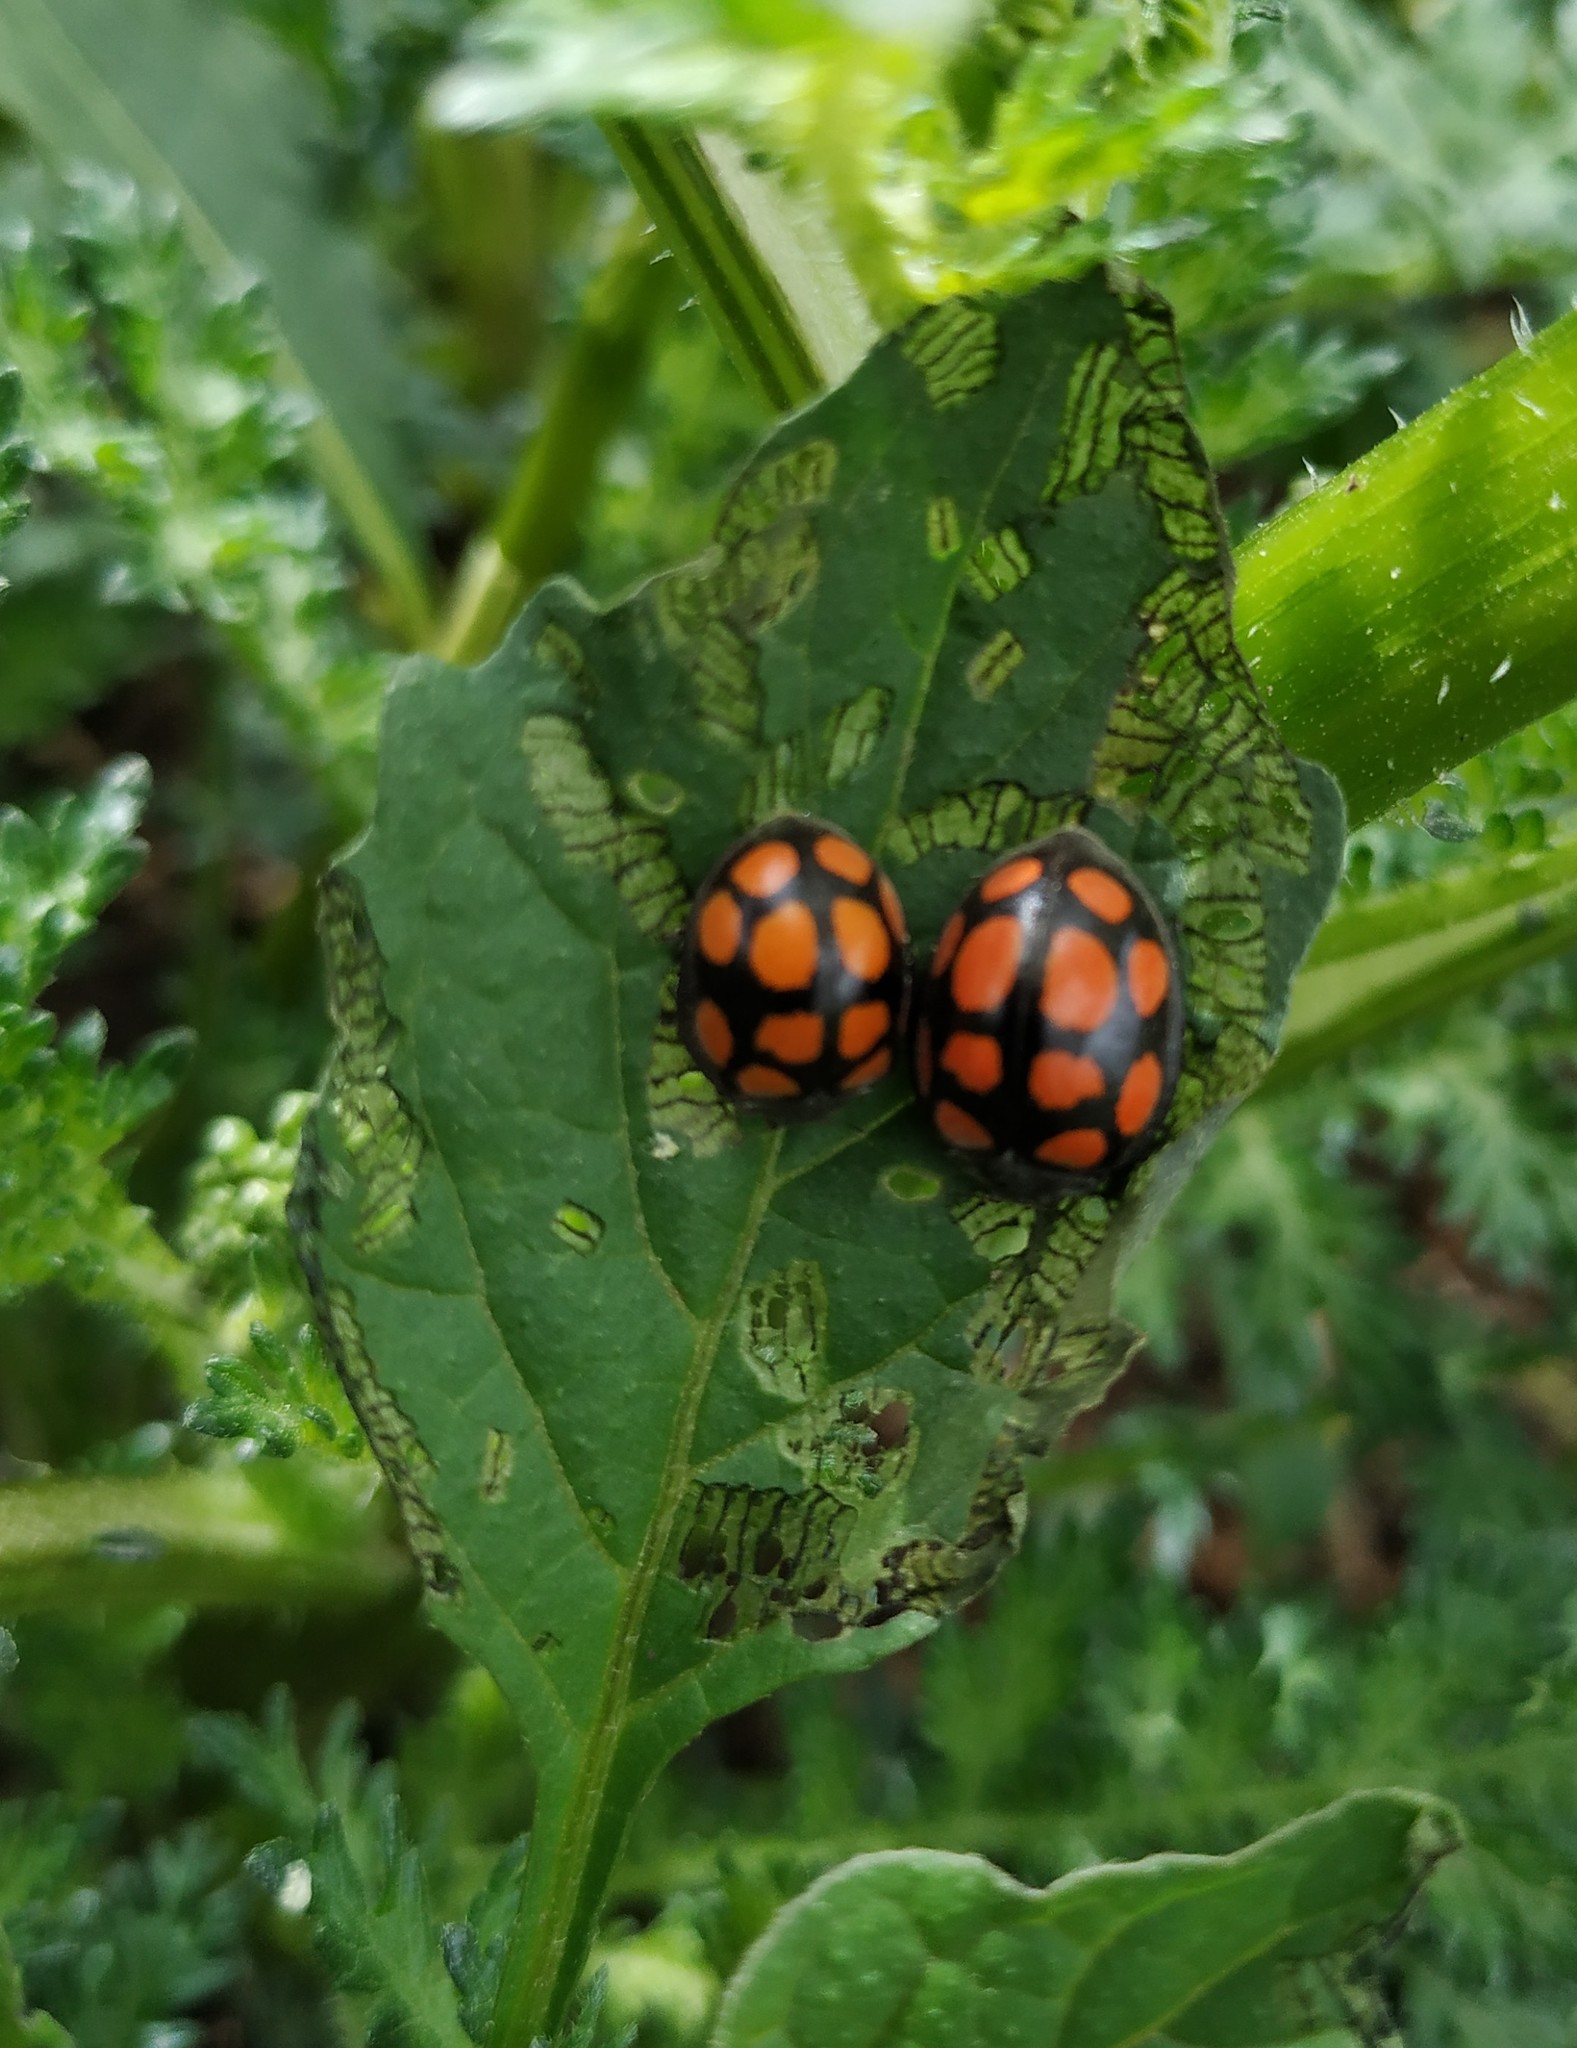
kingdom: Animalia
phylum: Arthropoda
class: Insecta
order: Coleoptera
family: Coccinellidae
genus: Epilachna
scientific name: Epilachna
